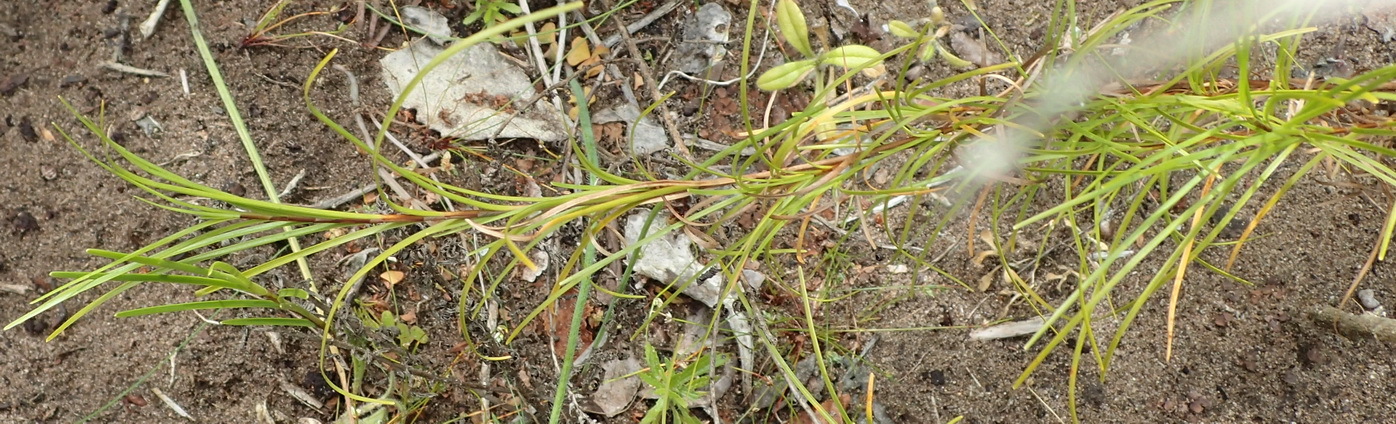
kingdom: Plantae
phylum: Tracheophyta
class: Liliopsida
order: Poales
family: Cyperaceae
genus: Ficinia
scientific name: Ficinia ramosissima
